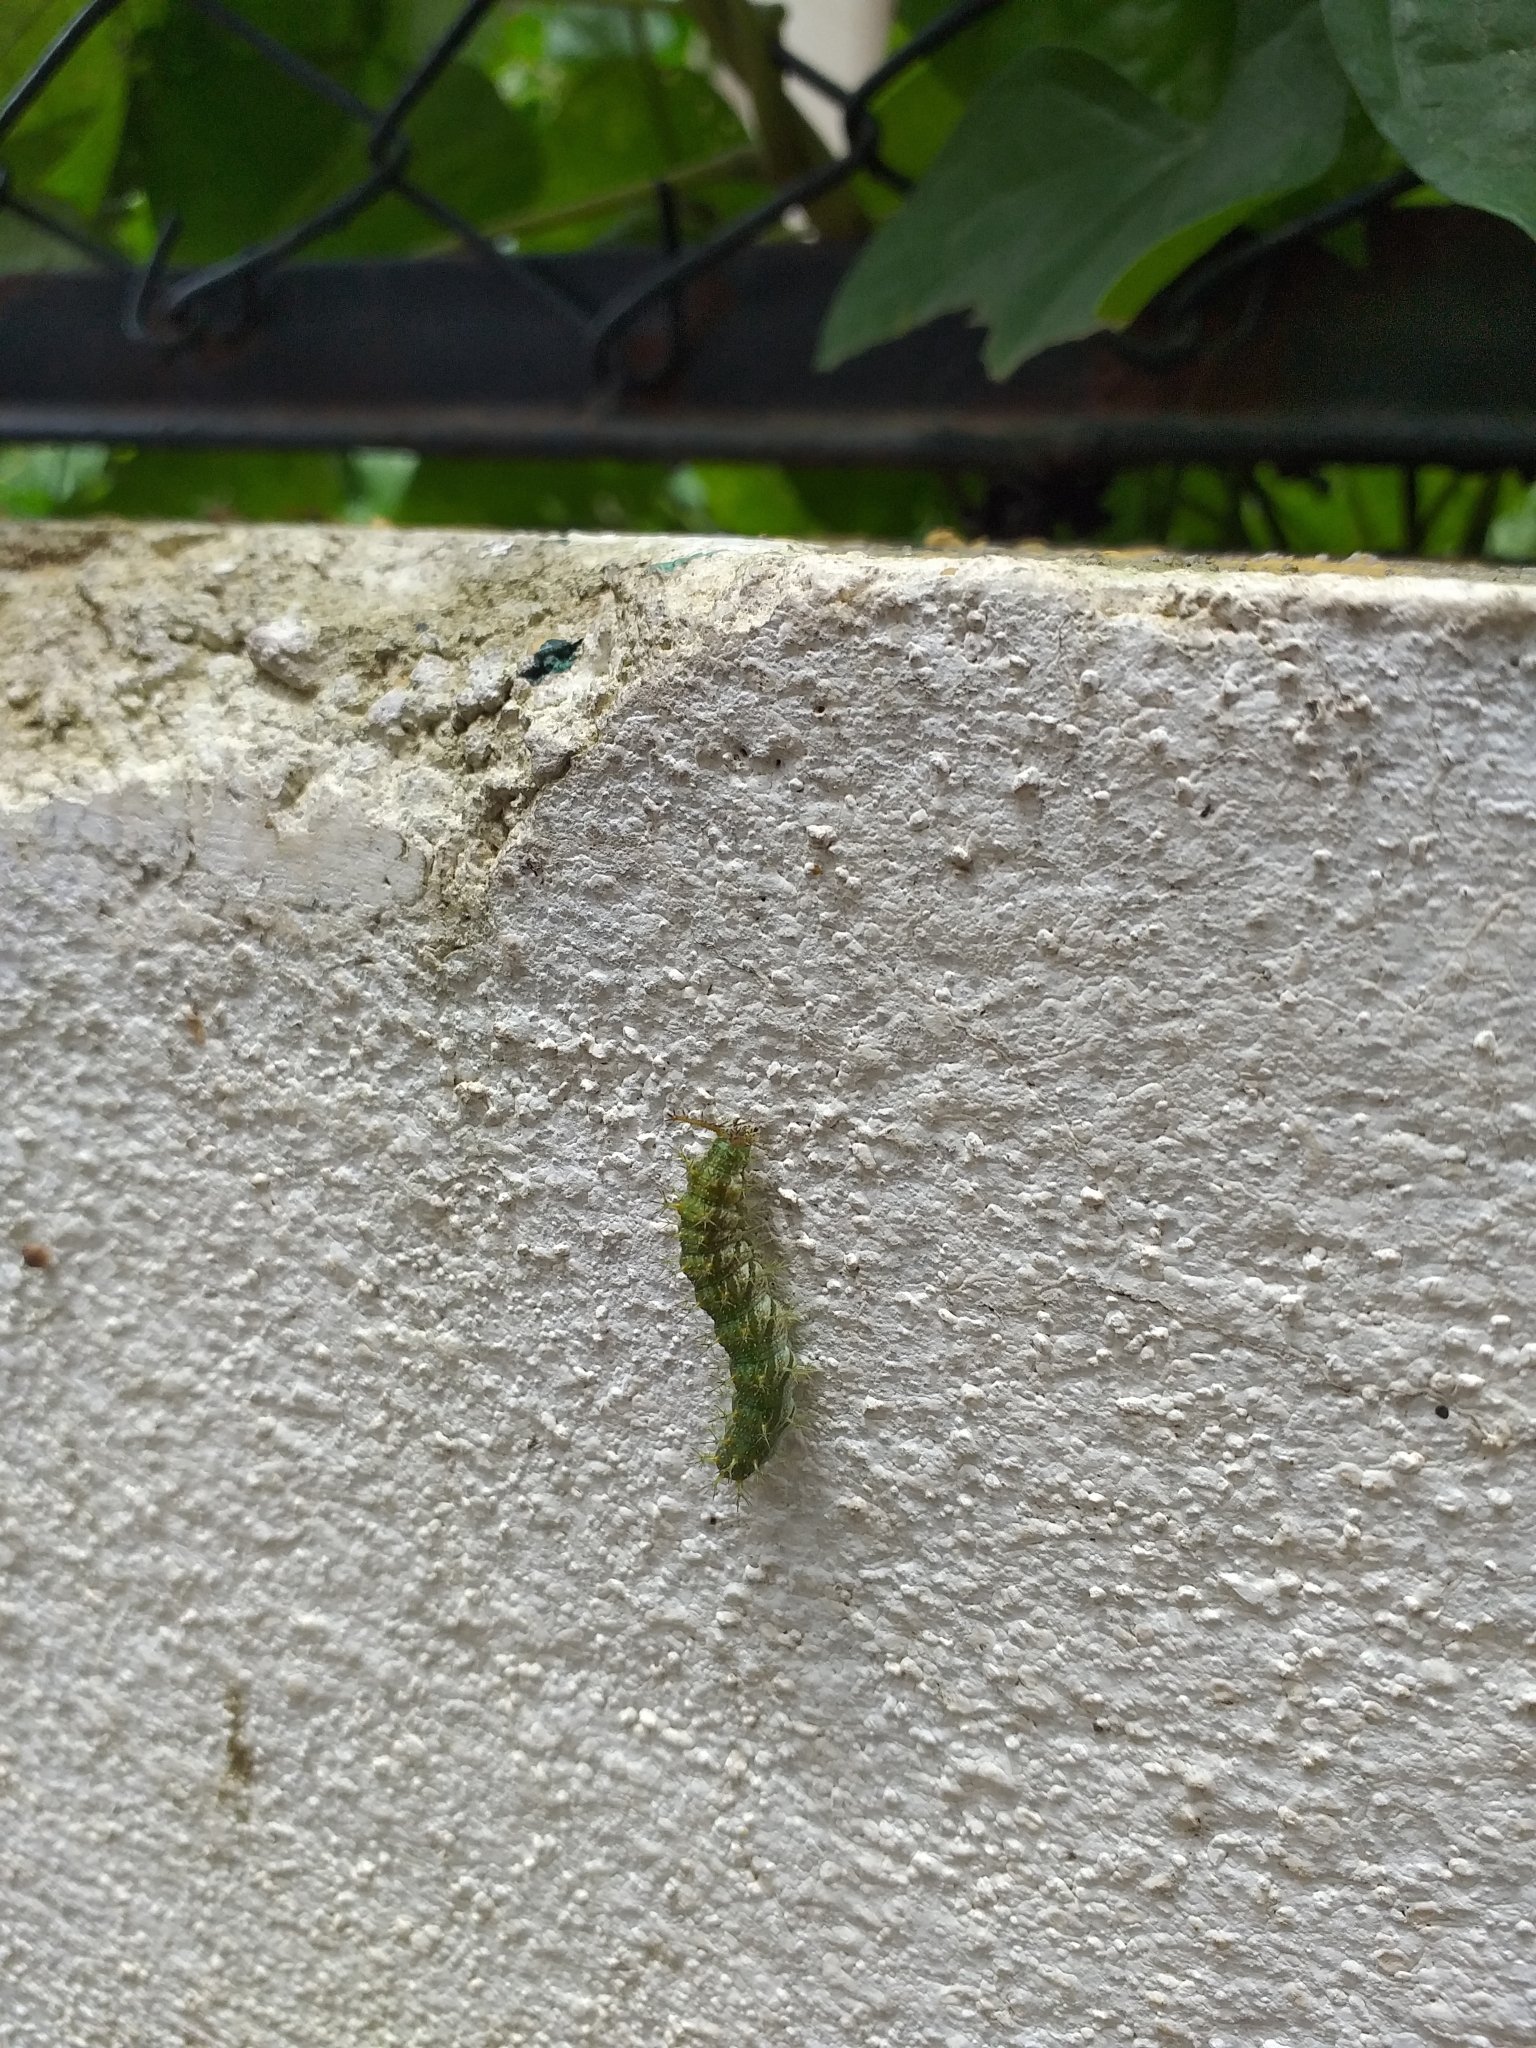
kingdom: Animalia
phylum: Arthropoda
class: Insecta
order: Lepidoptera
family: Nymphalidae
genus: Ariadne
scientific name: Ariadne merione
